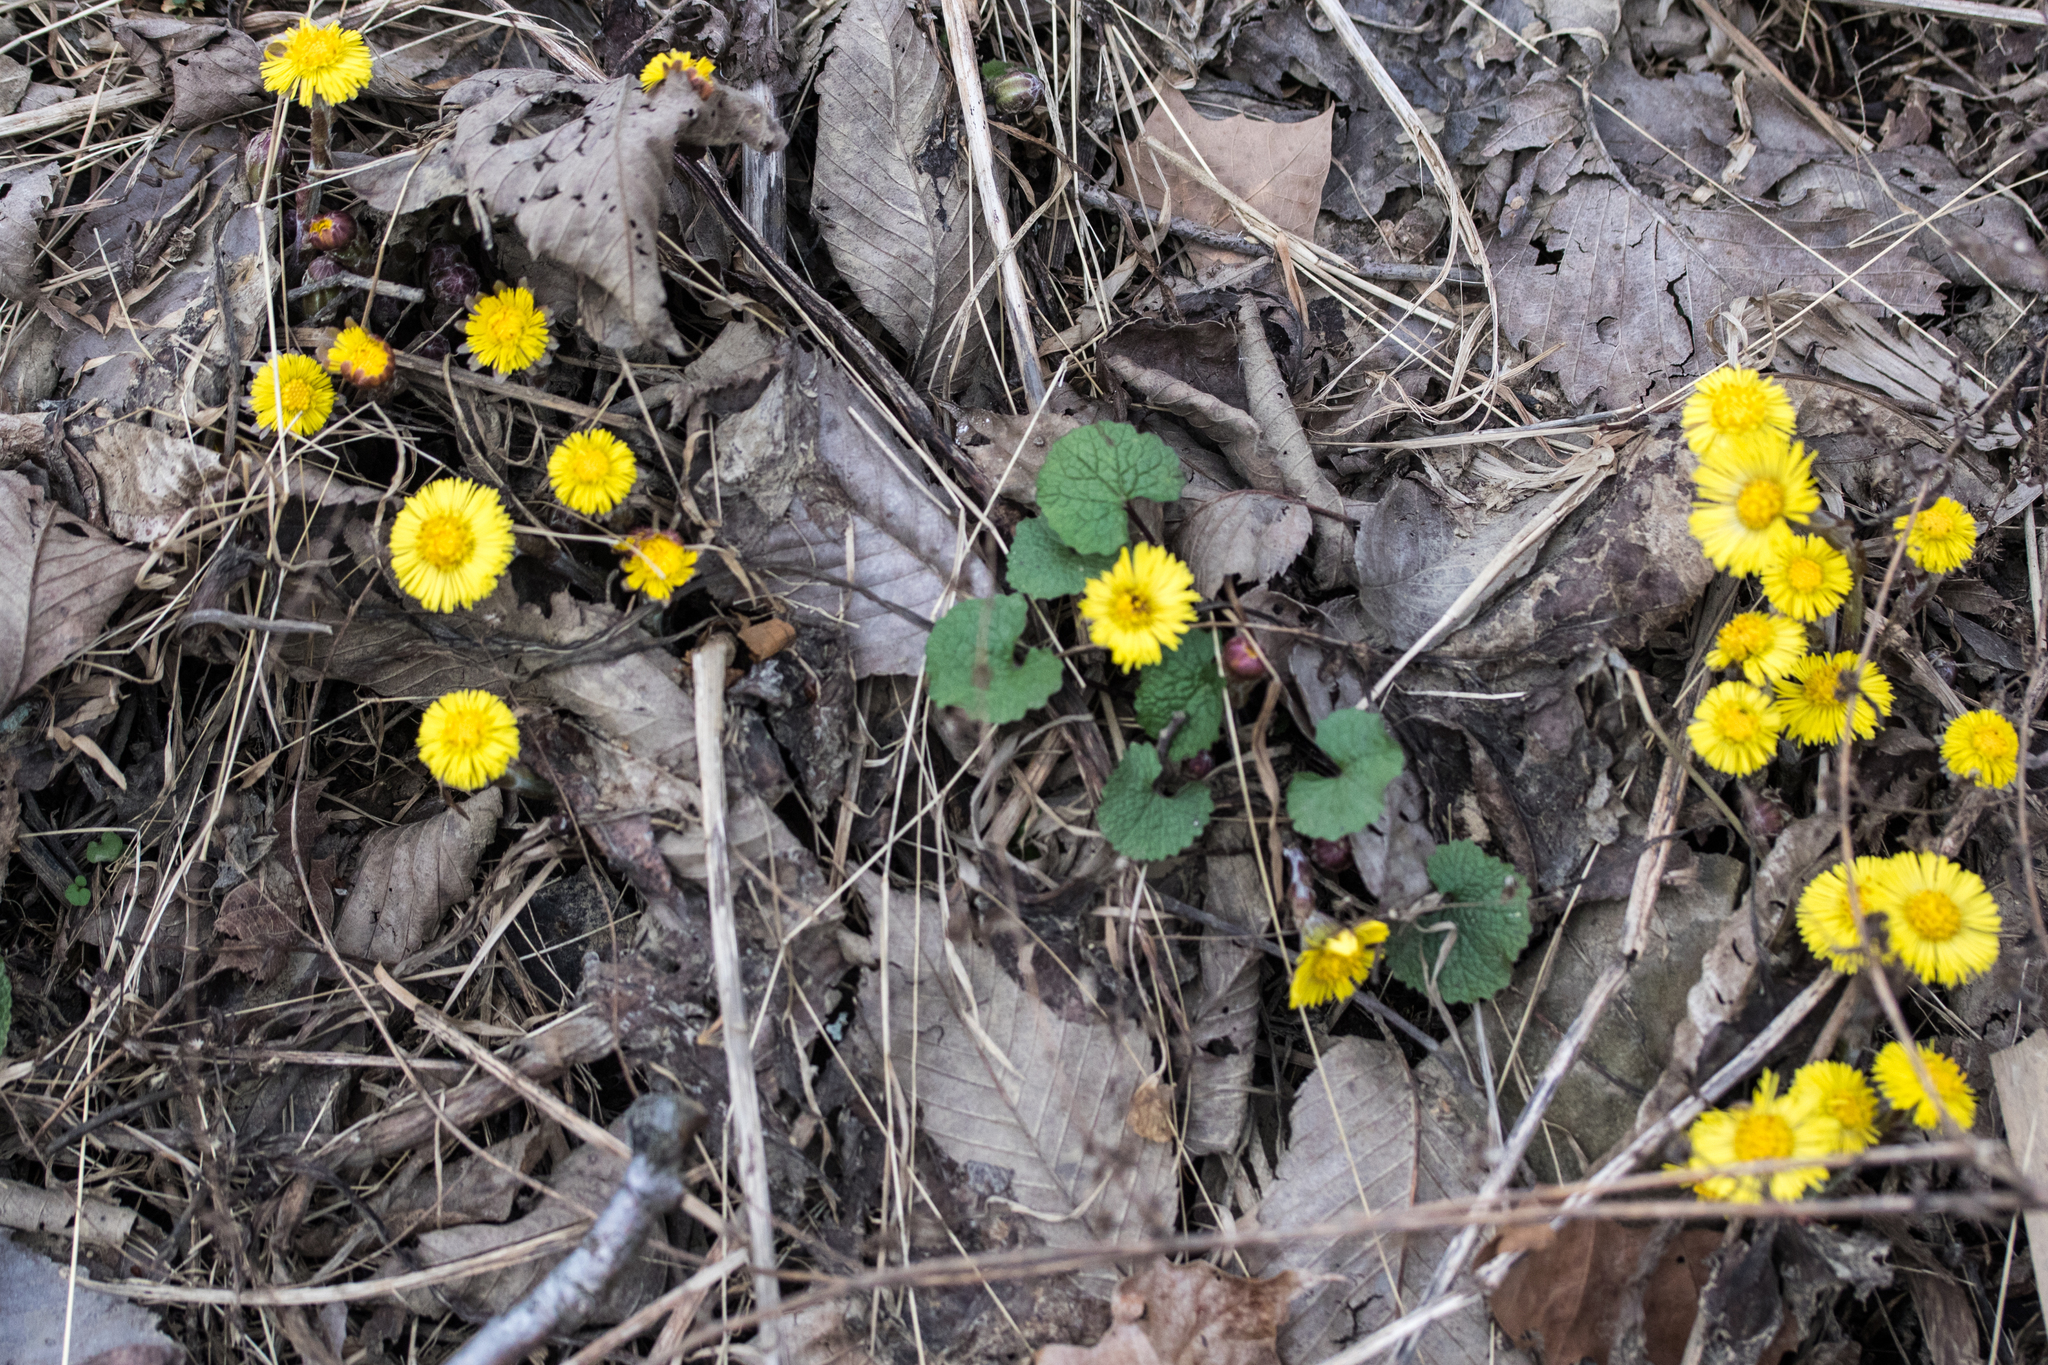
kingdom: Plantae
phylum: Tracheophyta
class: Magnoliopsida
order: Asterales
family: Asteraceae
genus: Tussilago
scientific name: Tussilago farfara
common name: Coltsfoot
